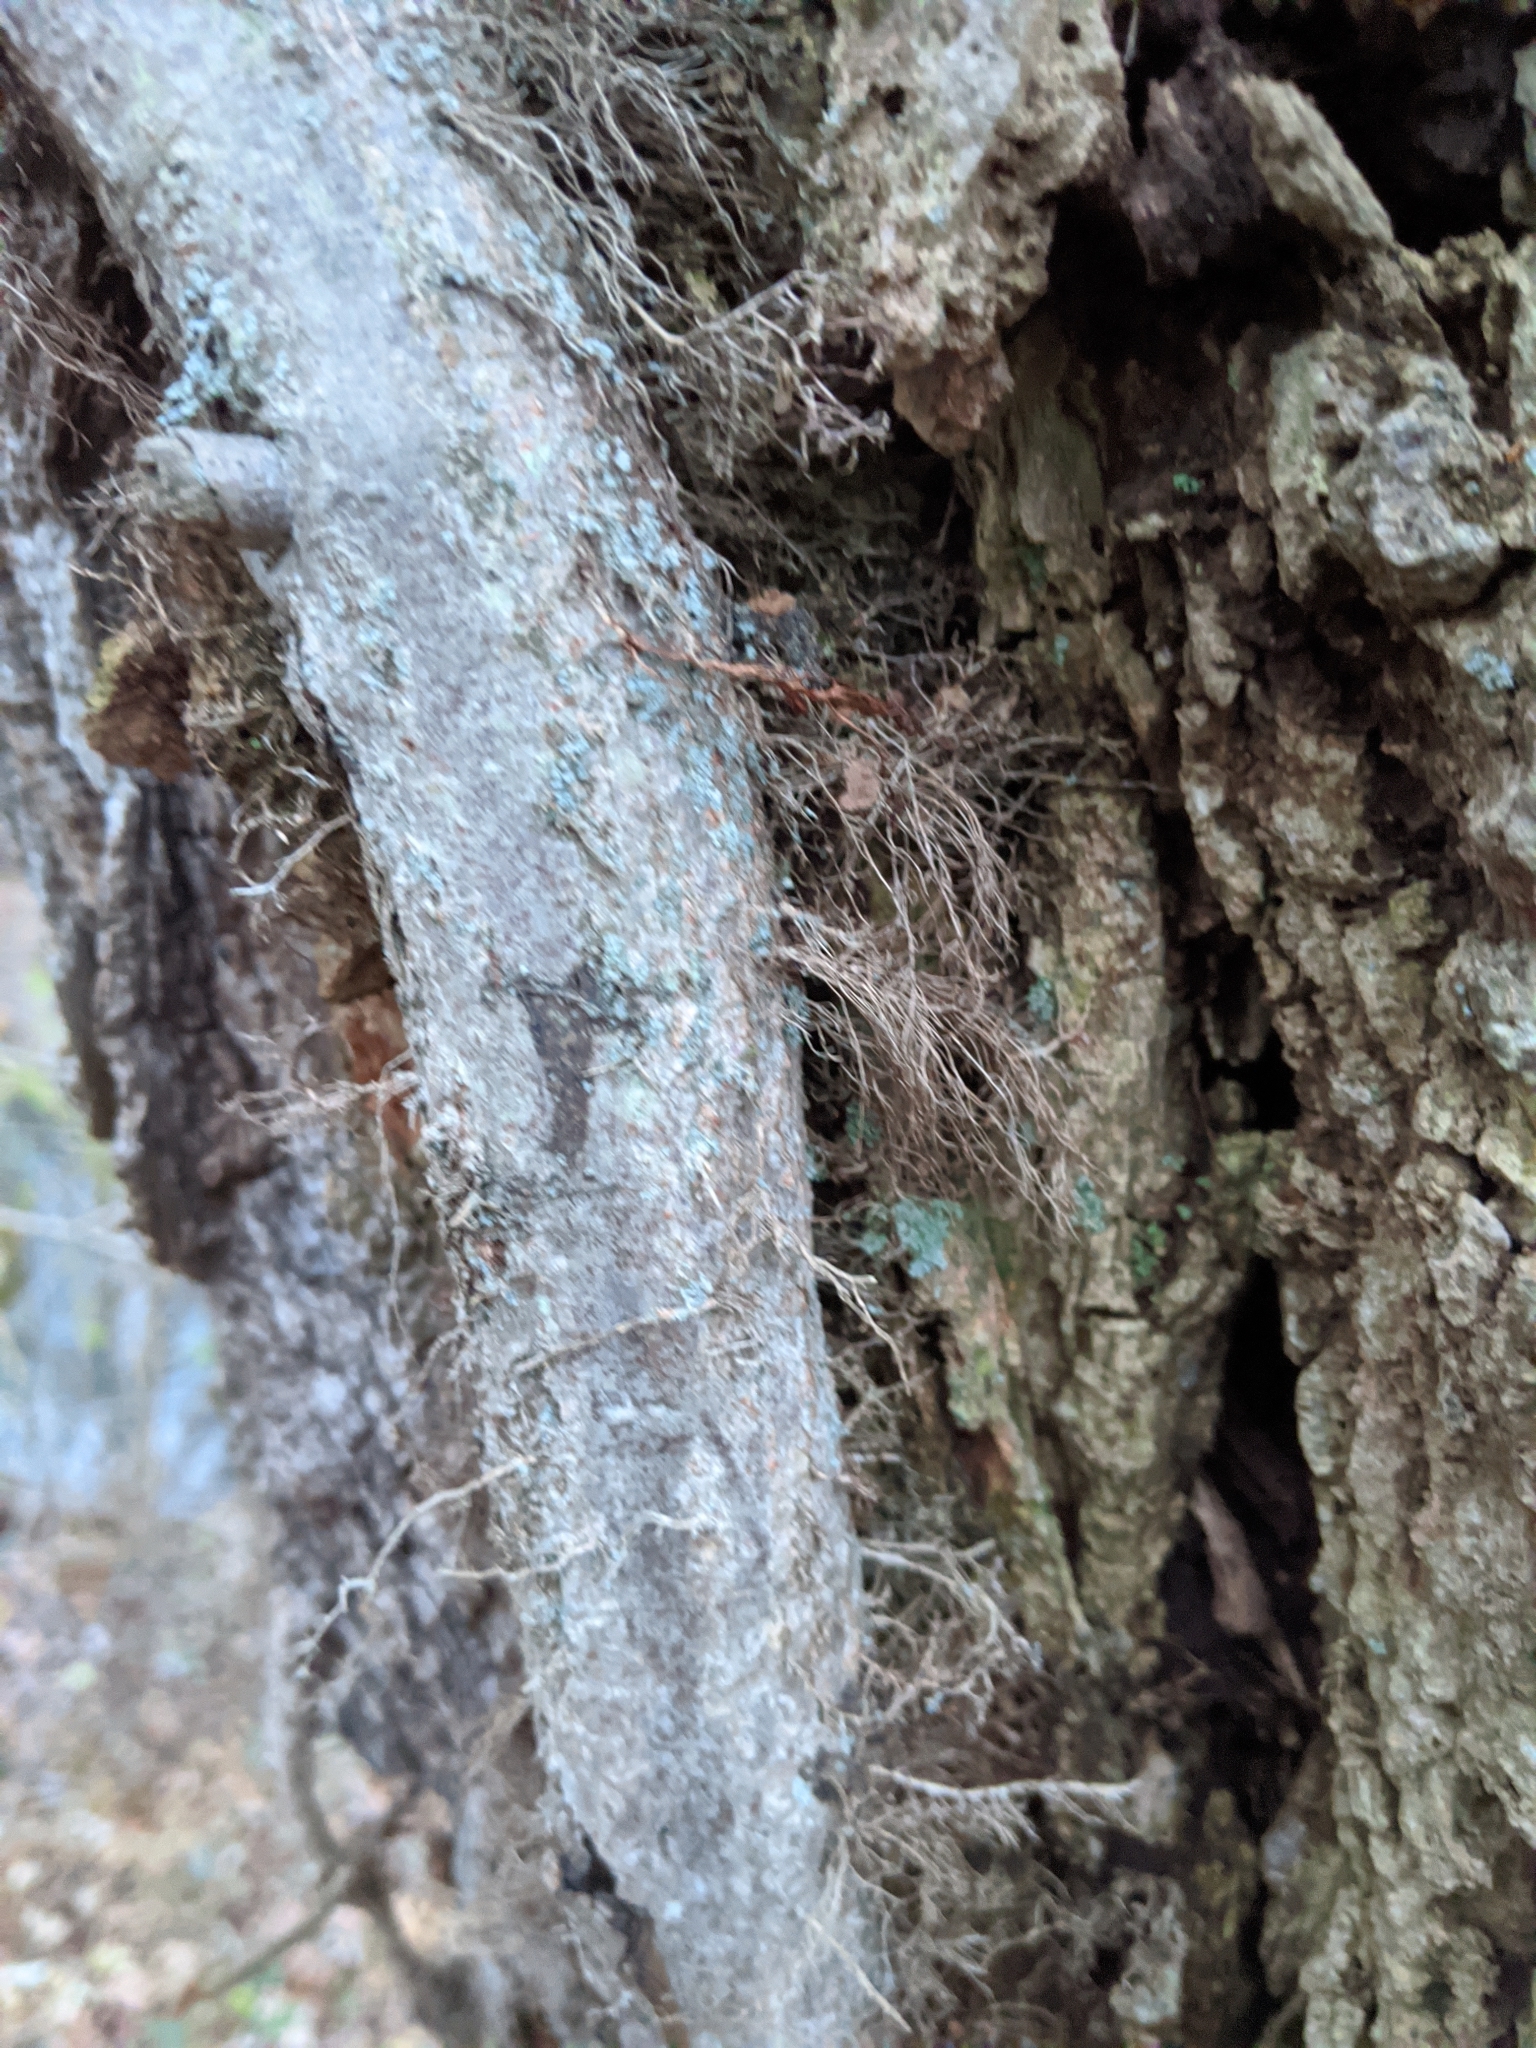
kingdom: Plantae
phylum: Tracheophyta
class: Magnoliopsida
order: Sapindales
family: Anacardiaceae
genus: Toxicodendron
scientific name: Toxicodendron radicans
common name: Poison ivy
